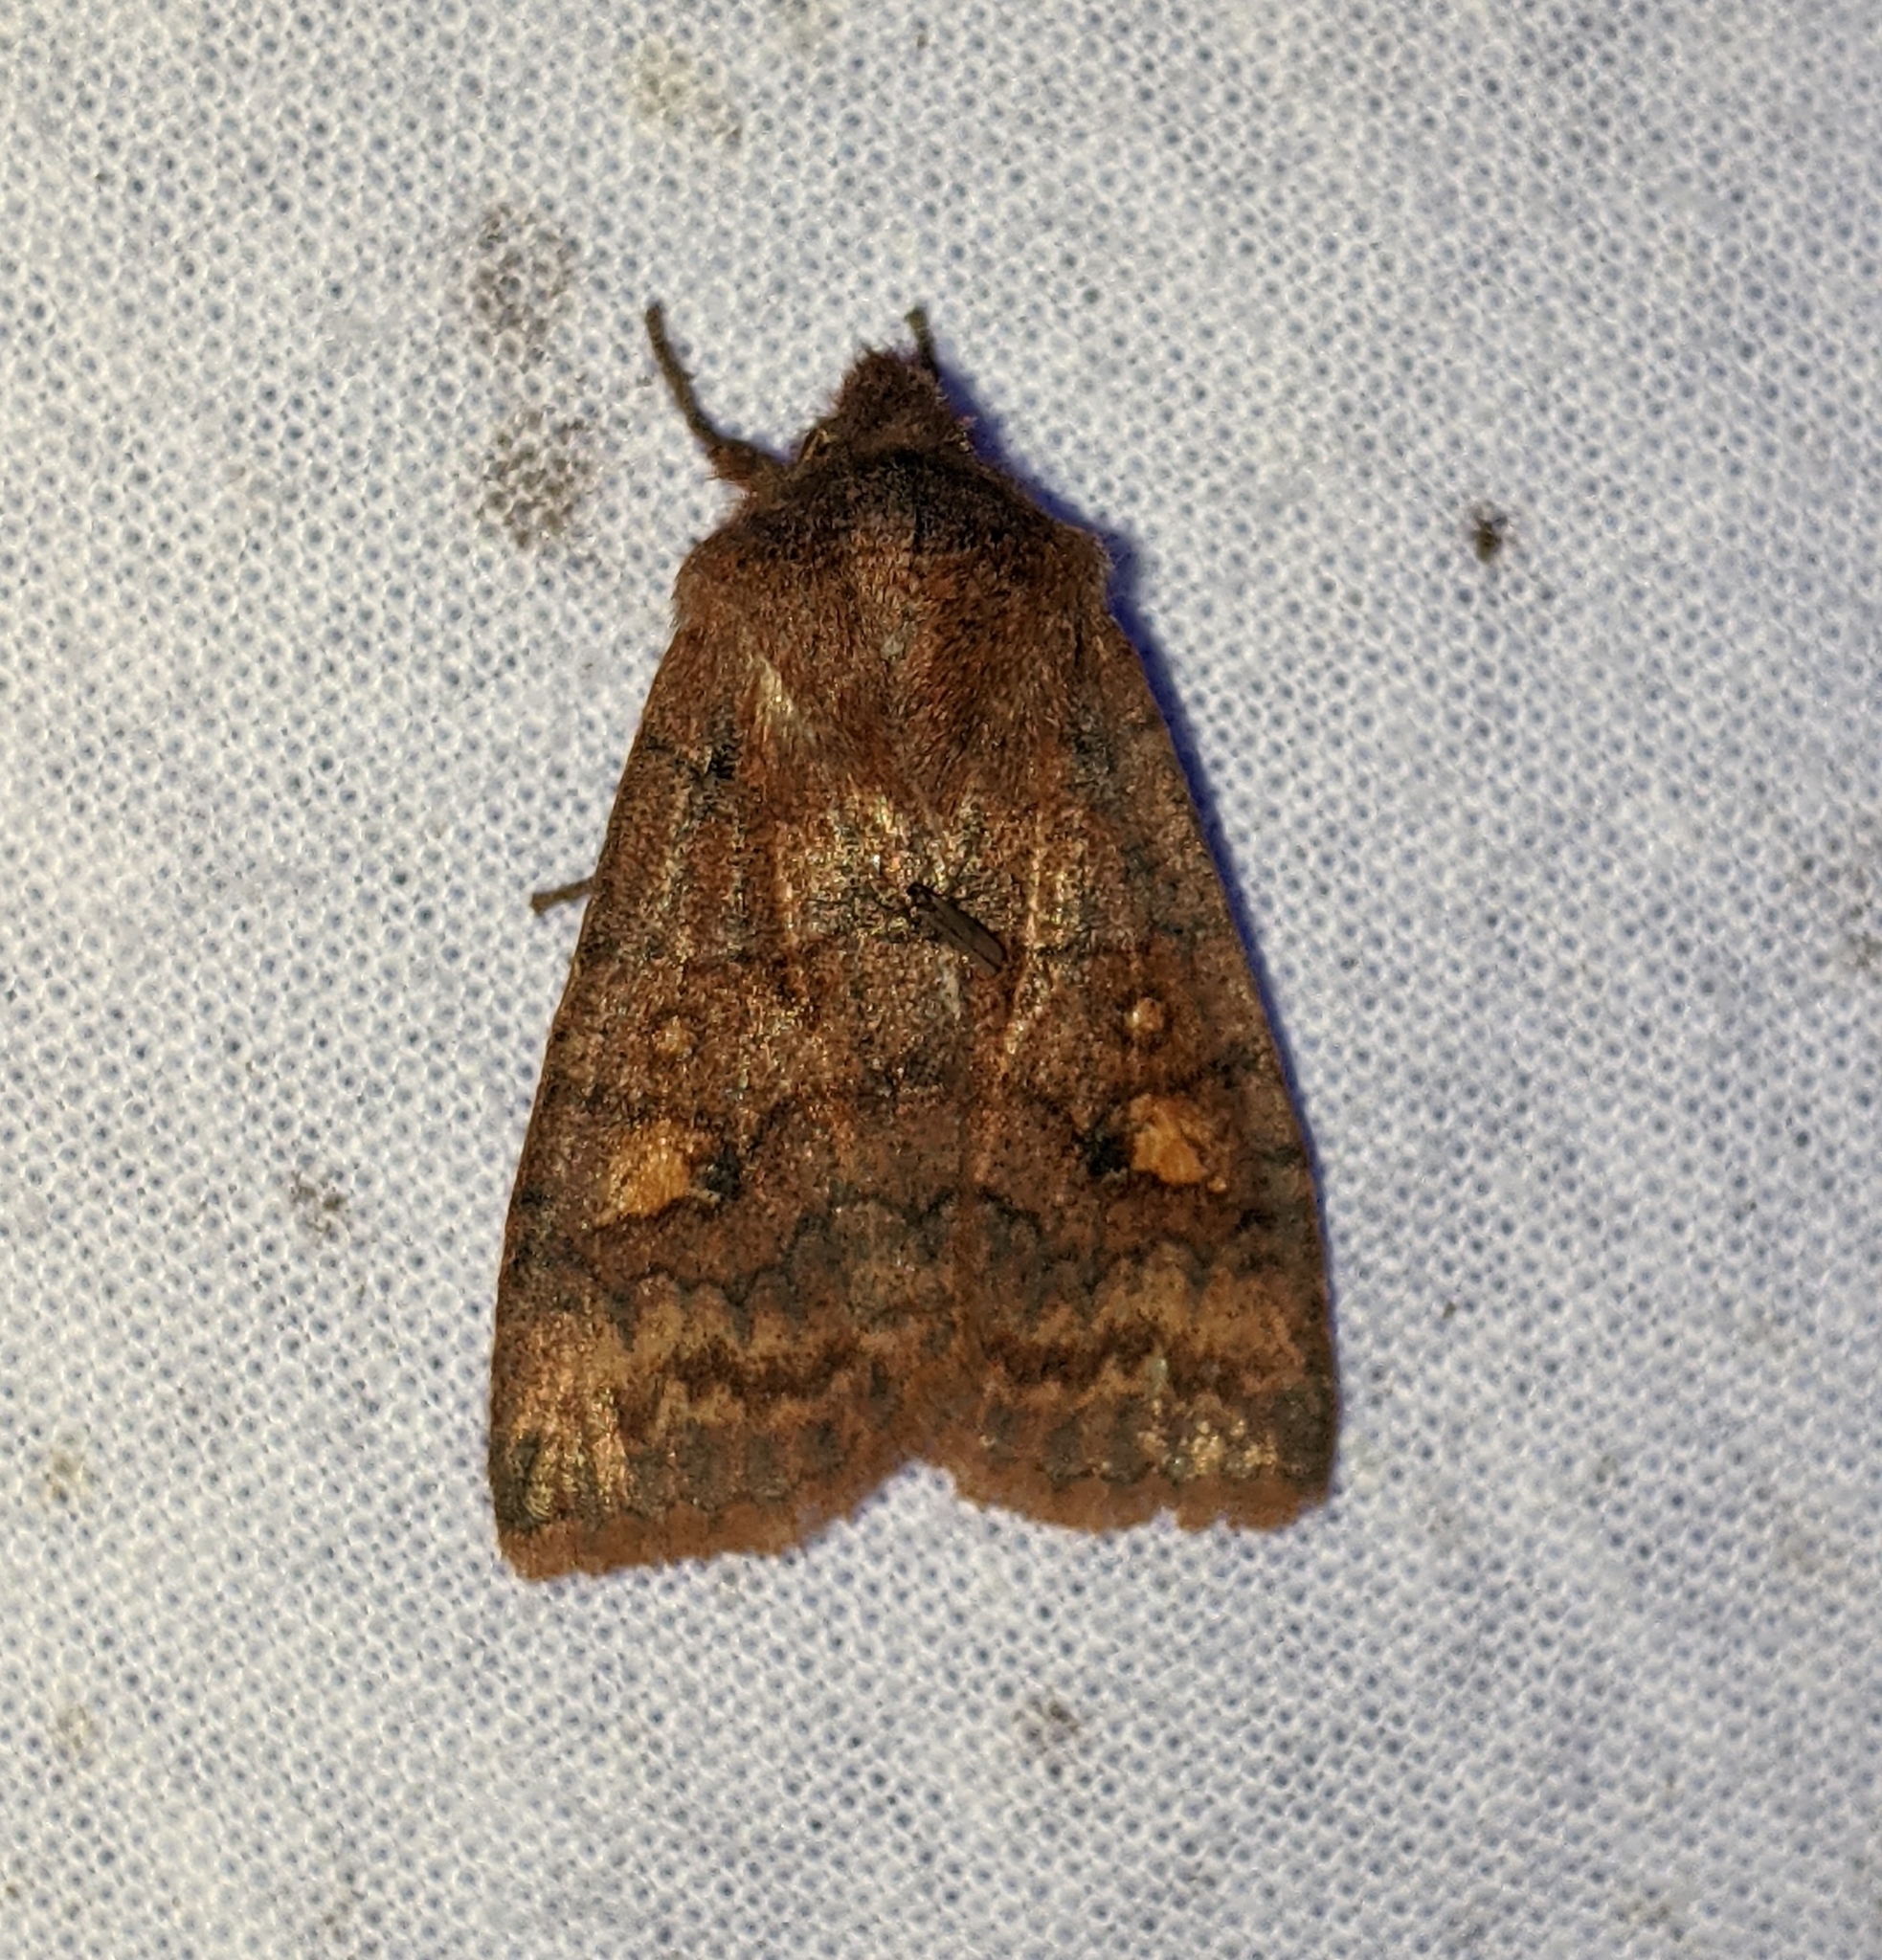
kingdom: Animalia
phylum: Arthropoda
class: Insecta
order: Lepidoptera
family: Noctuidae
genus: Eupsilia
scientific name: Eupsilia tristigmata
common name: Three-spotted sallow
